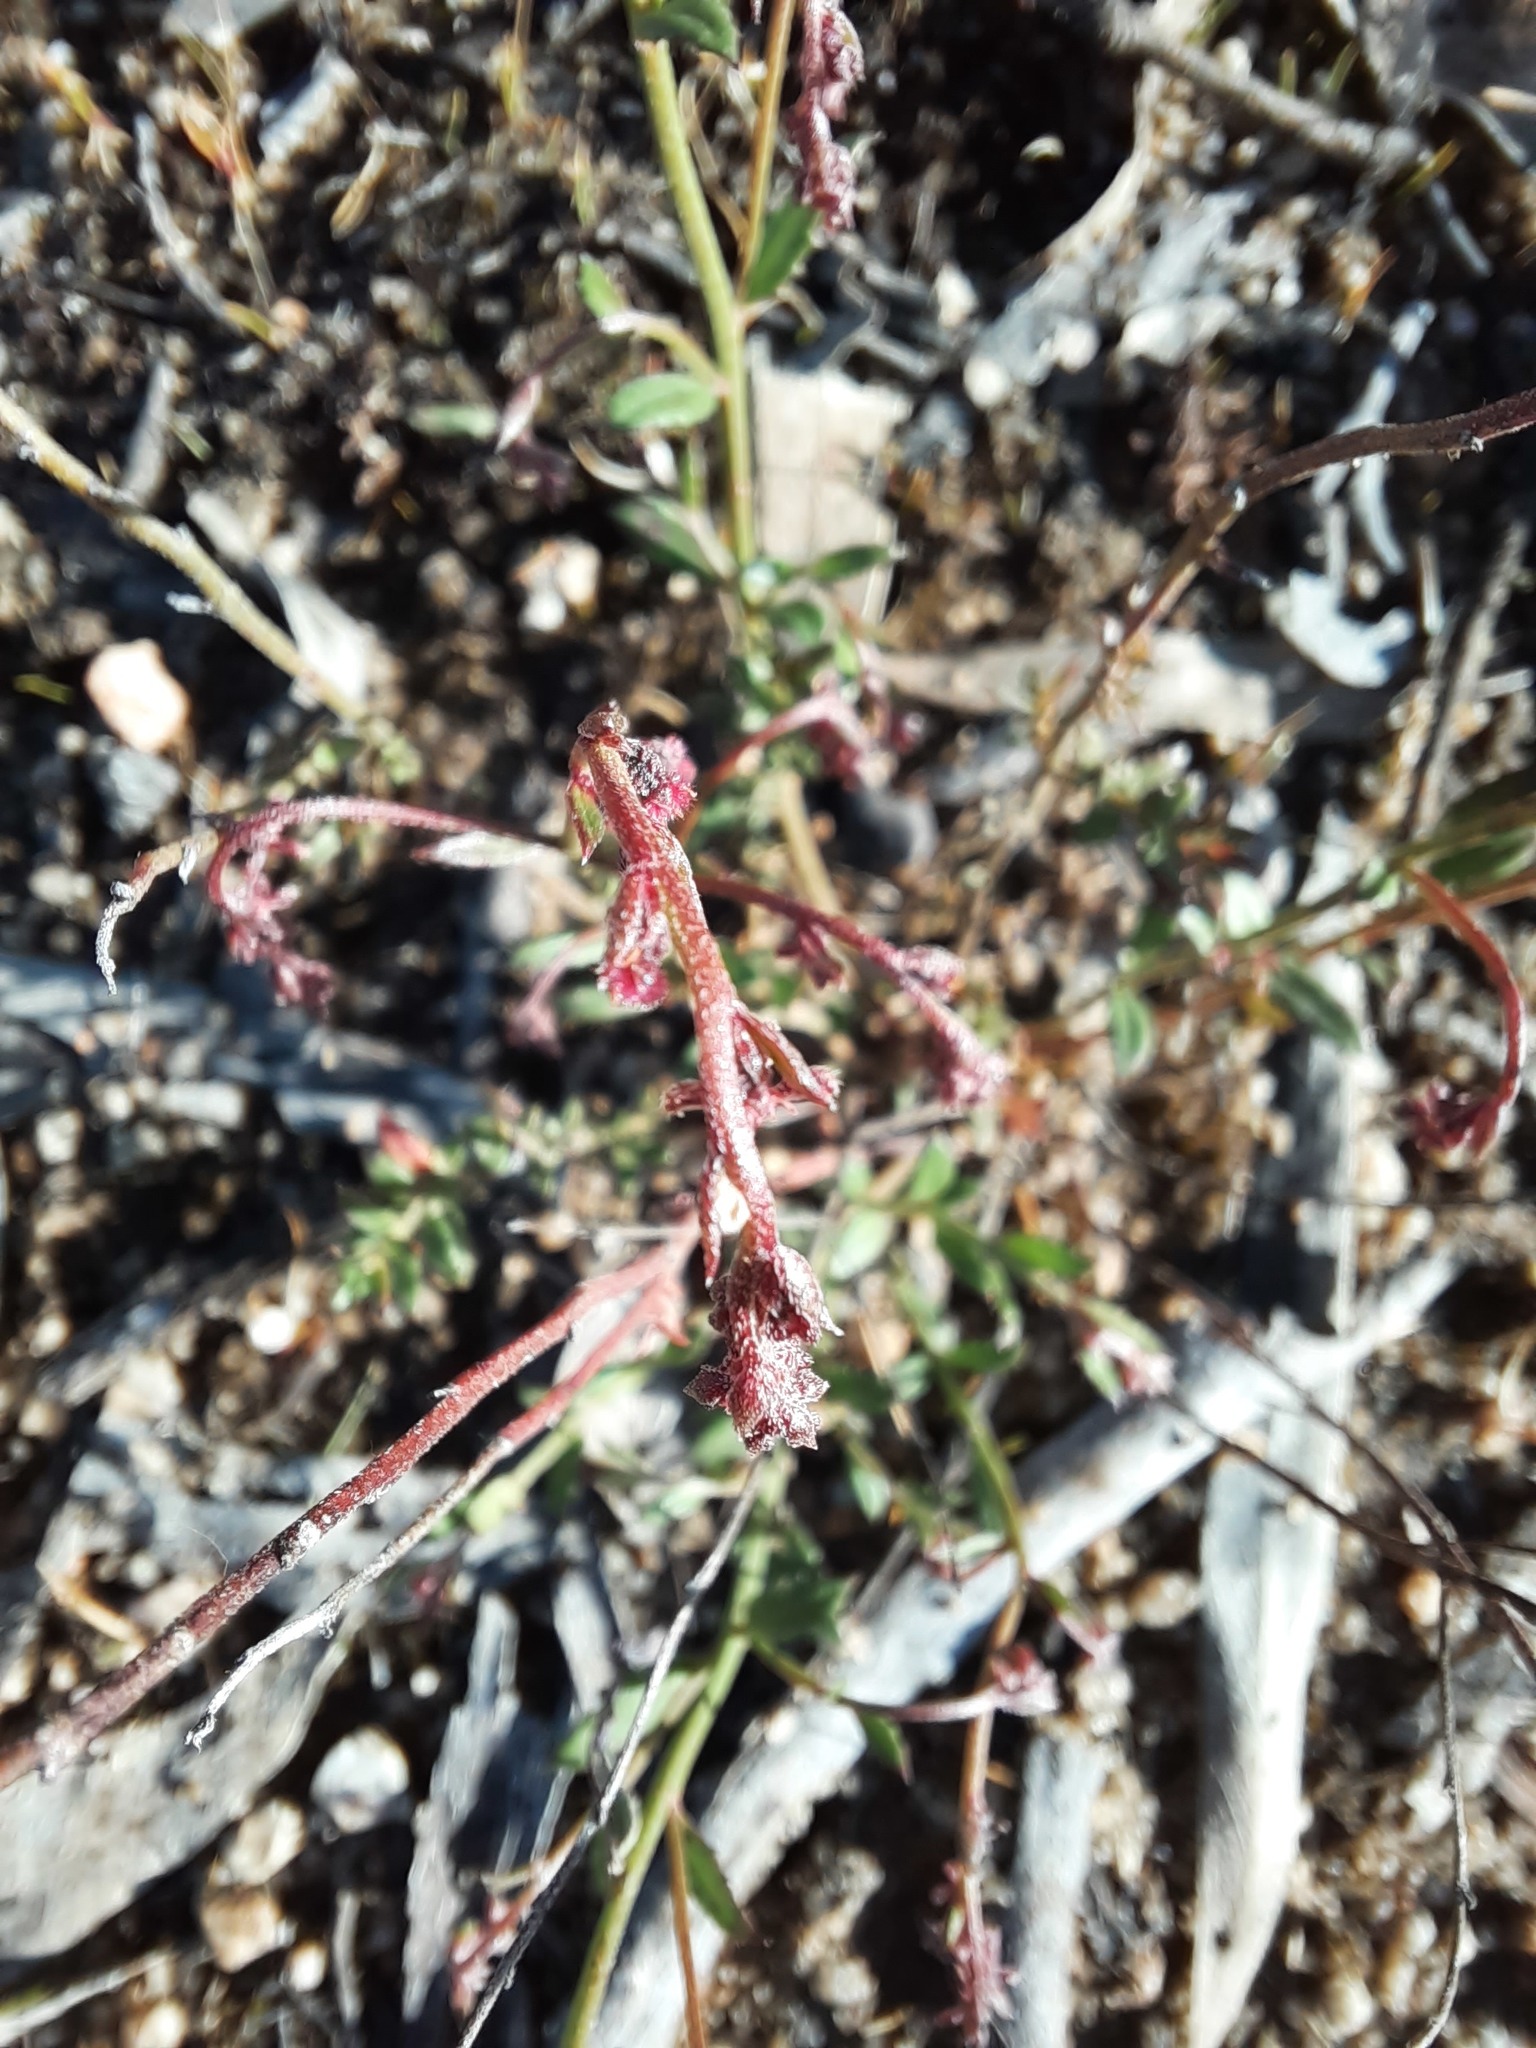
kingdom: Plantae
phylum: Tracheophyta
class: Magnoliopsida
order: Saxifragales
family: Haloragaceae
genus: Gonocarpus
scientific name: Gonocarpus tetragynus
